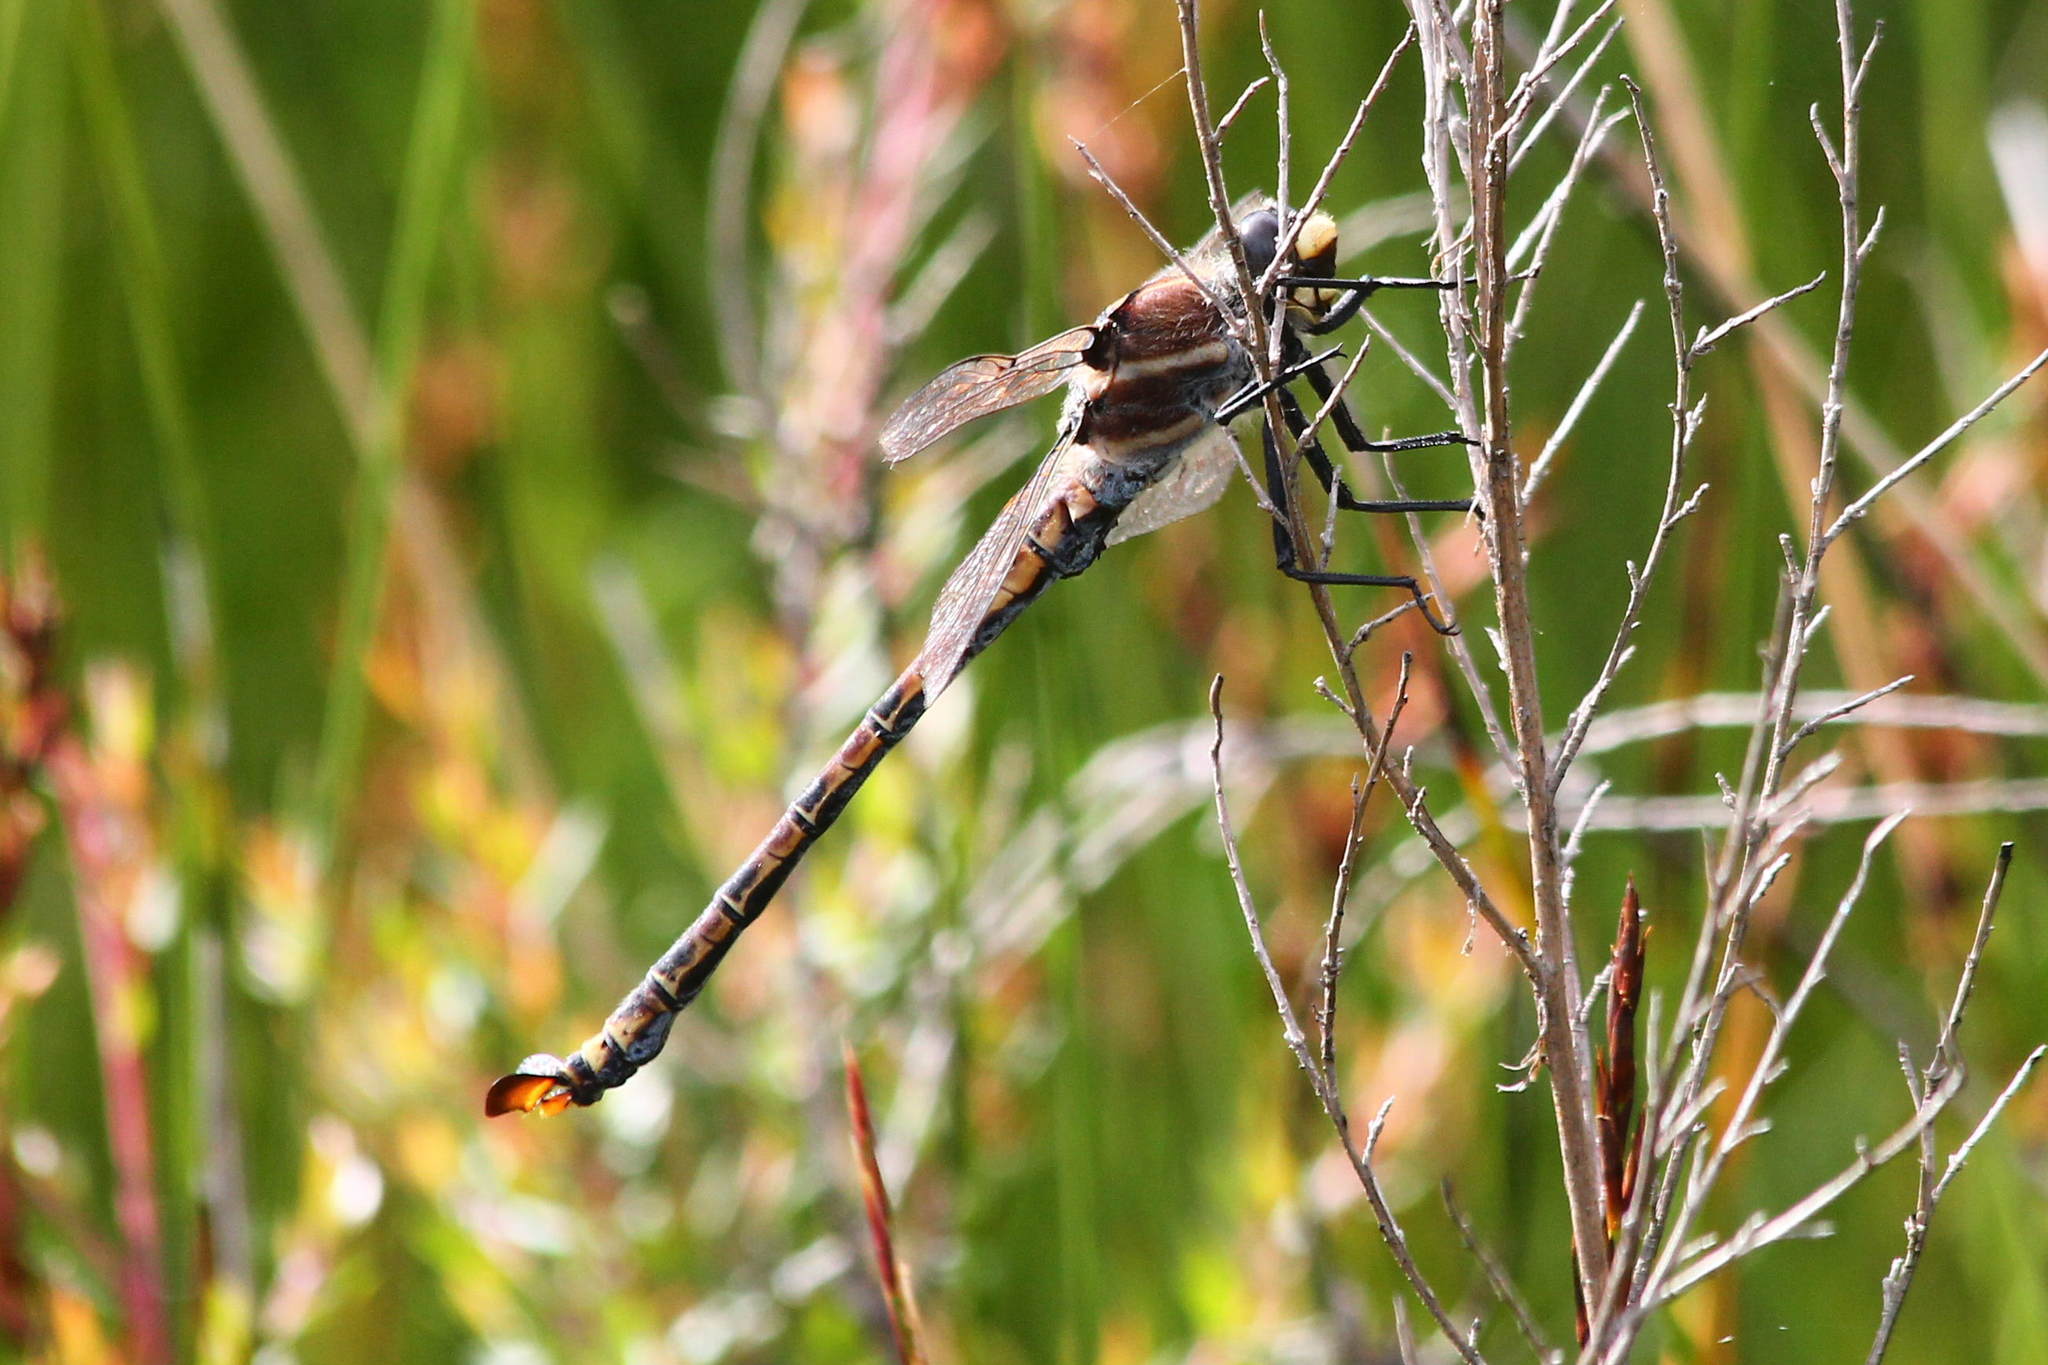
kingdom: Animalia
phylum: Arthropoda
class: Insecta
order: Odonata
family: Petaluridae
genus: Petalura
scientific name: Petalura gigantea
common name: South-eastern petaltail
